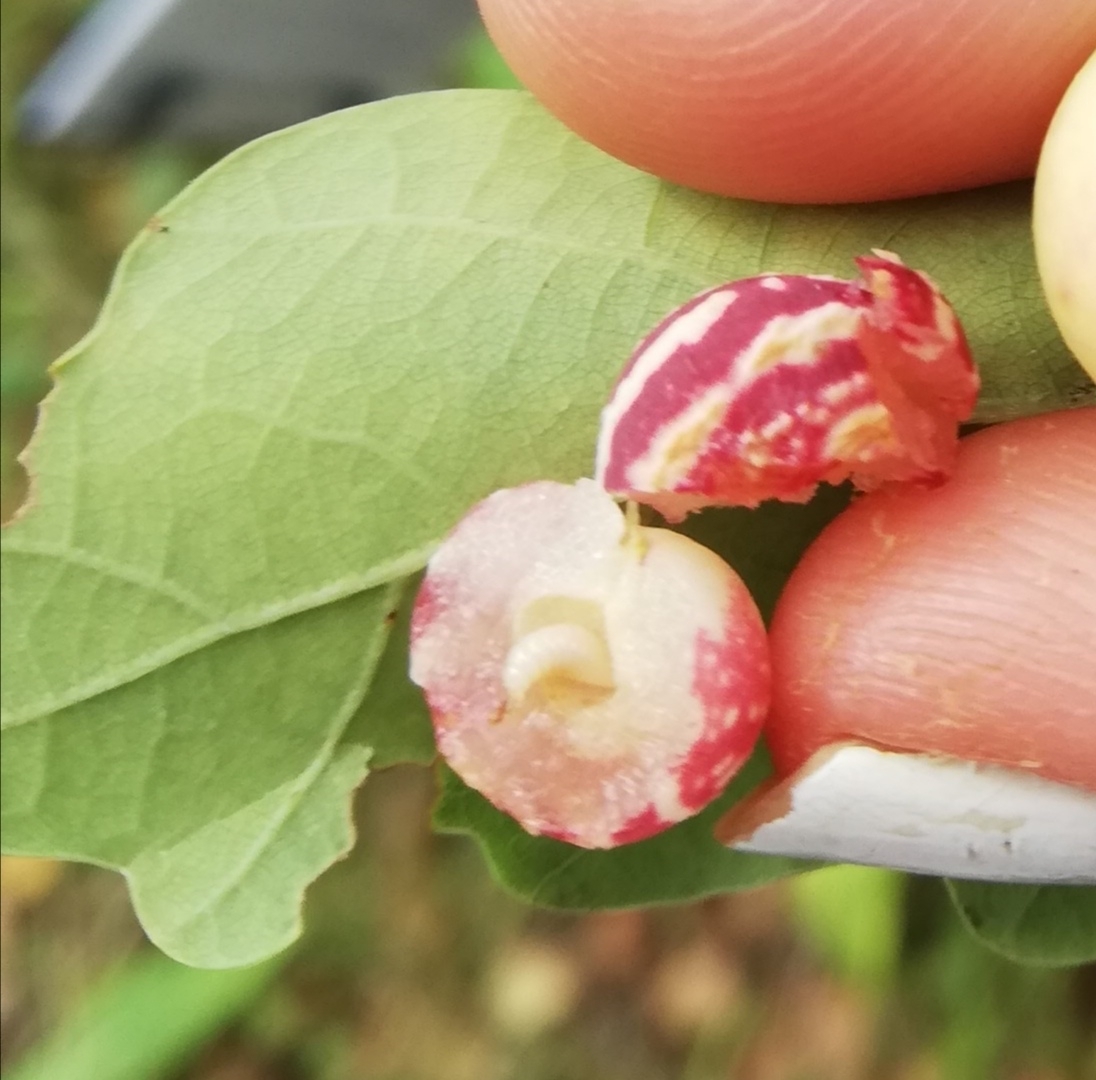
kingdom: Animalia
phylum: Arthropoda
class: Insecta
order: Hymenoptera
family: Cynipidae
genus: Cynips
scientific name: Cynips longiventris
